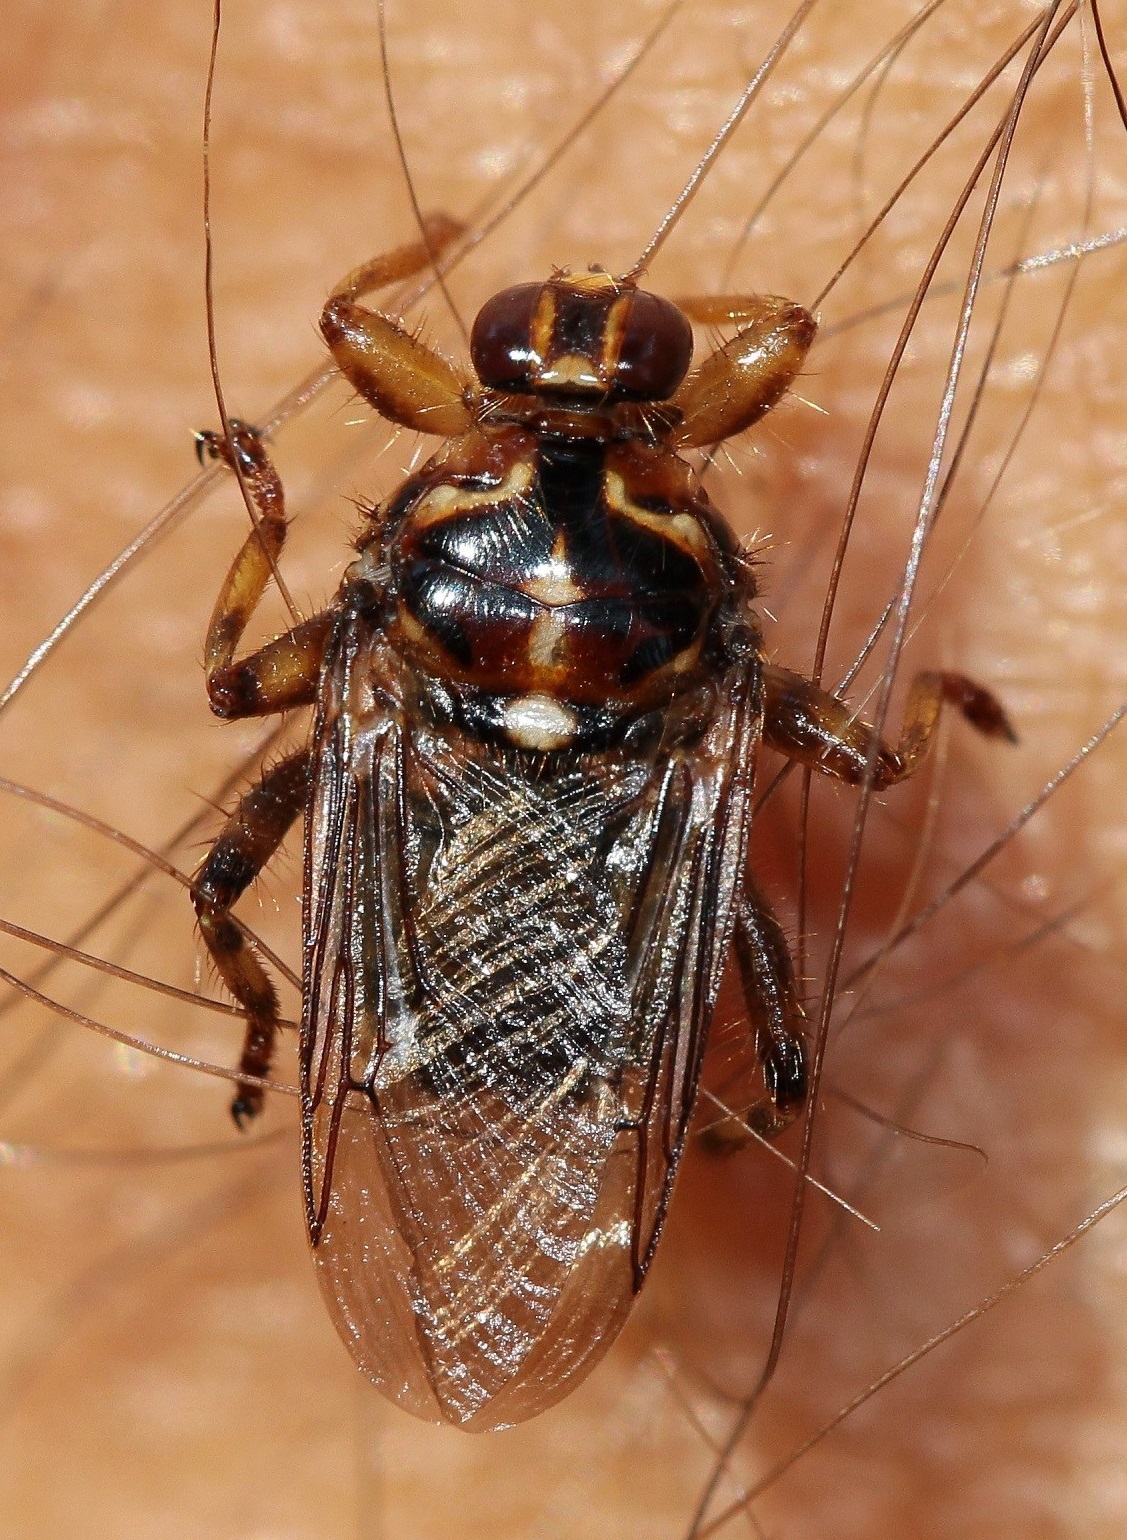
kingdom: Animalia
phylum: Arthropoda
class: Insecta
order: Diptera
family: Hippoboscidae
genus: Hippobosca
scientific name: Hippobosca equina
